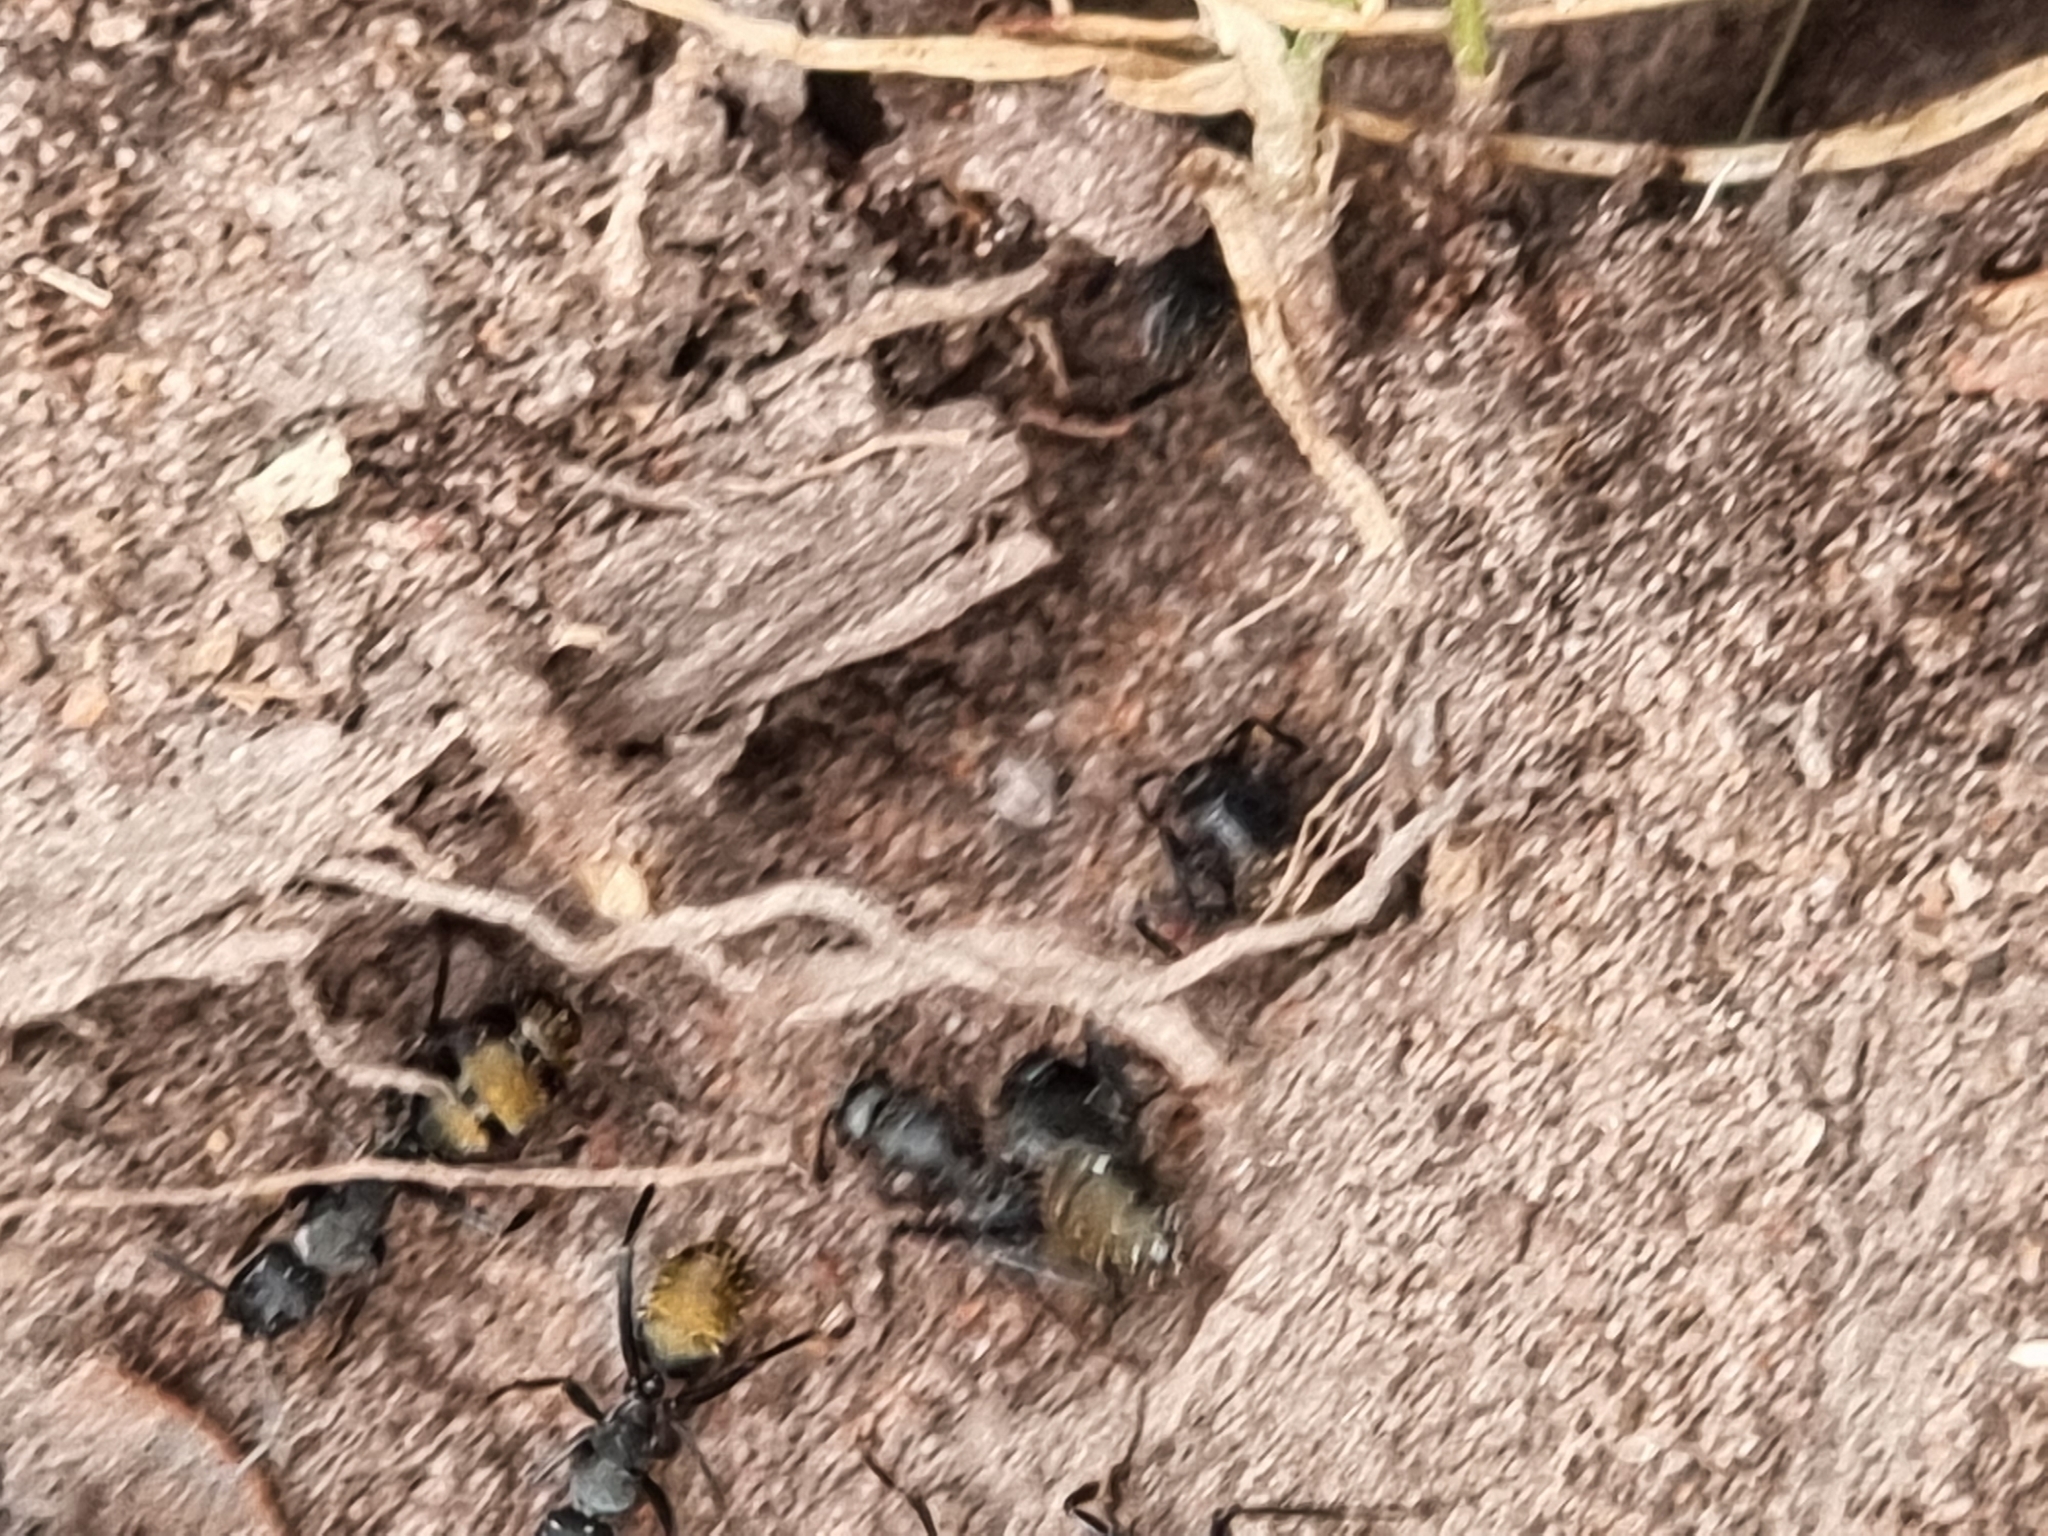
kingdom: Animalia
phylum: Arthropoda
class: Insecta
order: Hymenoptera
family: Formicidae
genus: Camponotus
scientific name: Camponotus aeneopilosus
